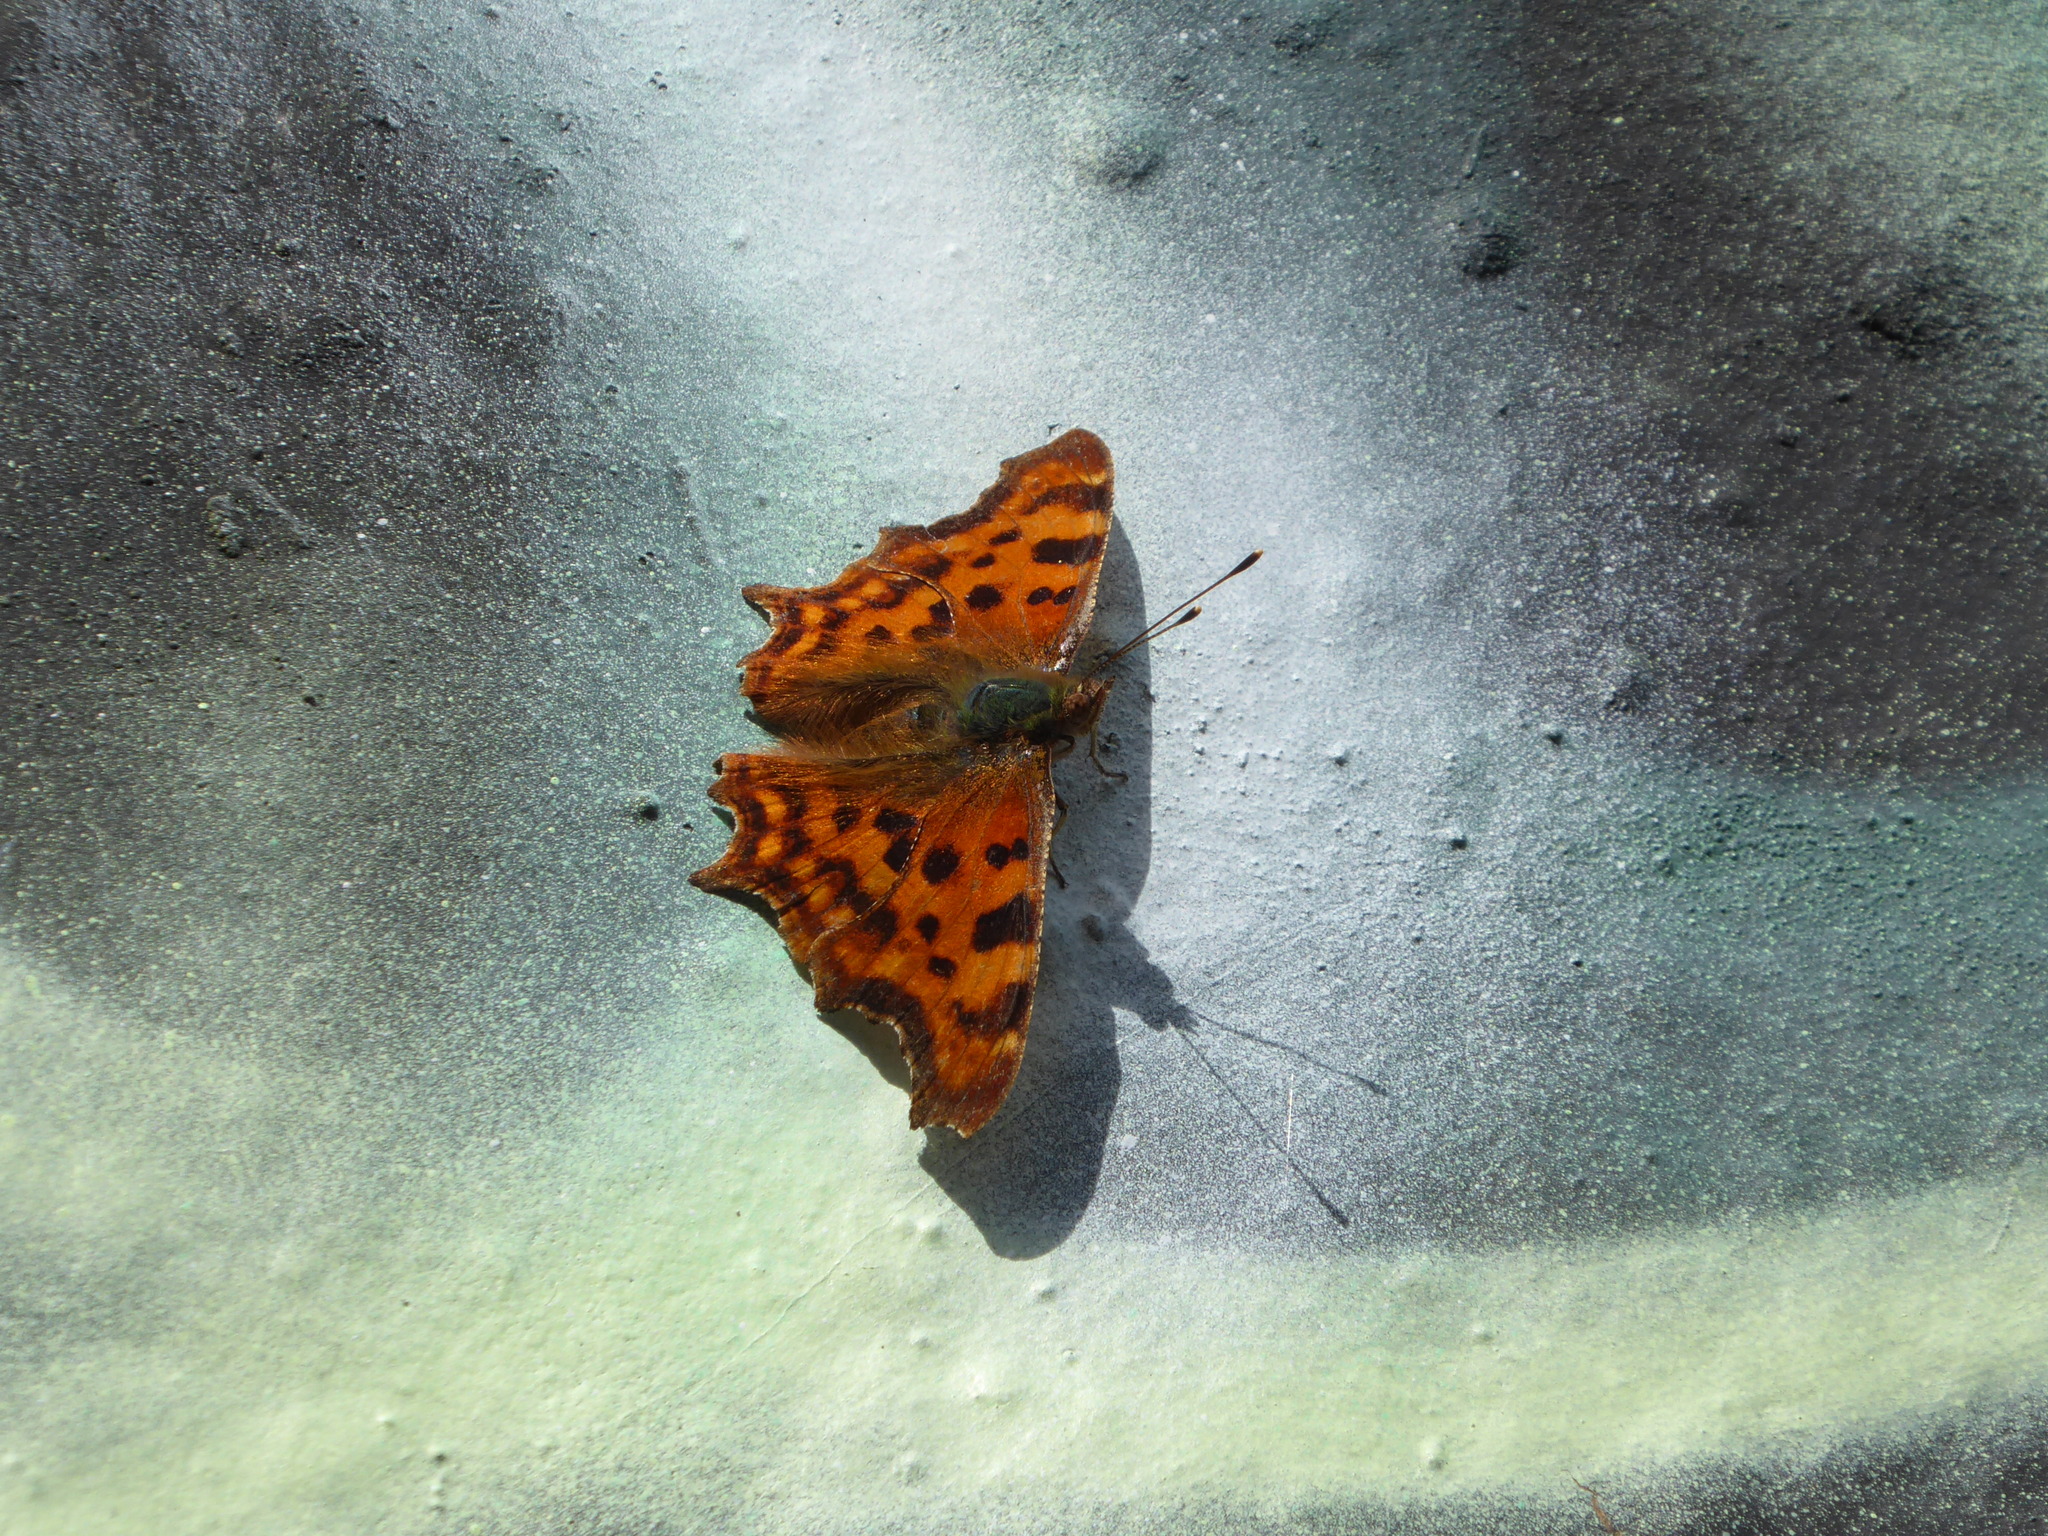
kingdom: Animalia
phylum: Arthropoda
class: Insecta
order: Lepidoptera
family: Nymphalidae
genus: Polygonia
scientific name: Polygonia c-album
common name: Comma
